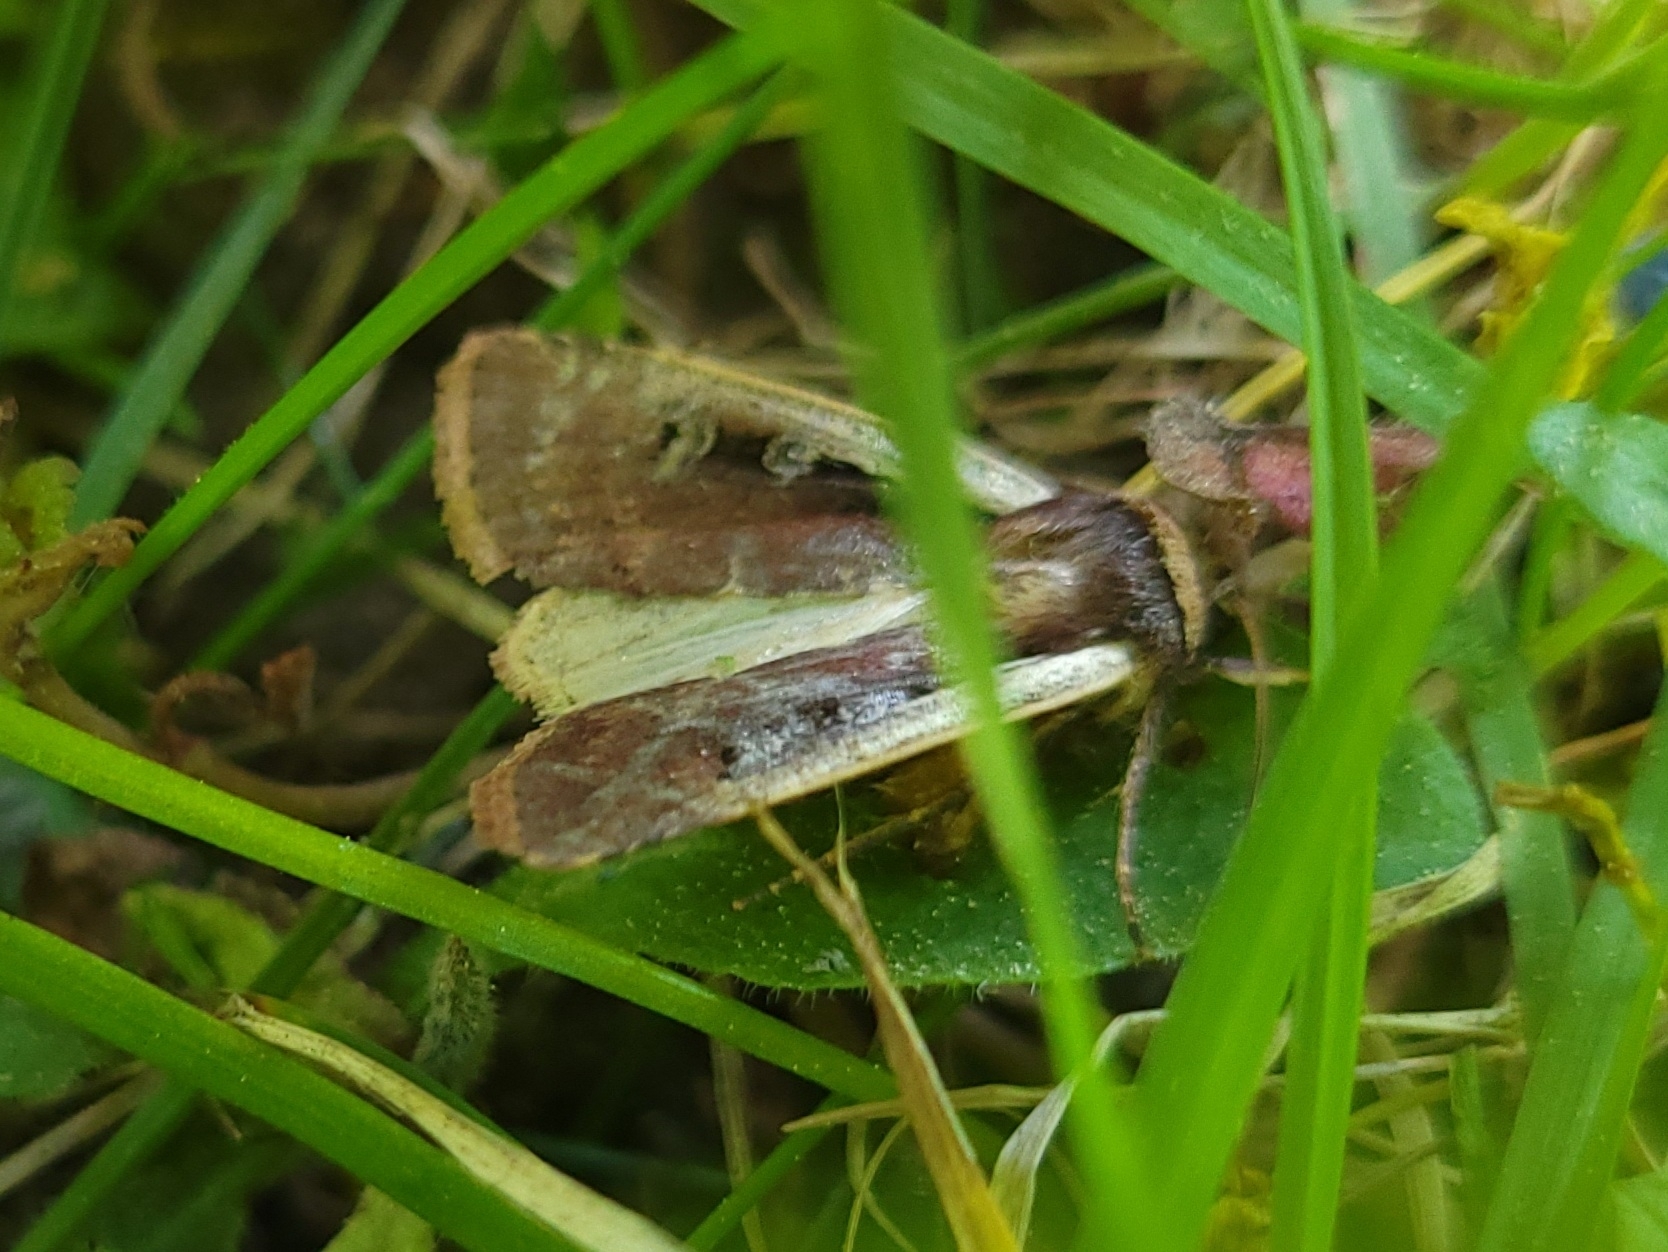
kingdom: Animalia
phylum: Arthropoda
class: Insecta
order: Lepidoptera
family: Noctuidae
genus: Ochropleura
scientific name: Ochropleura implecta
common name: Flame-shouldered dart
